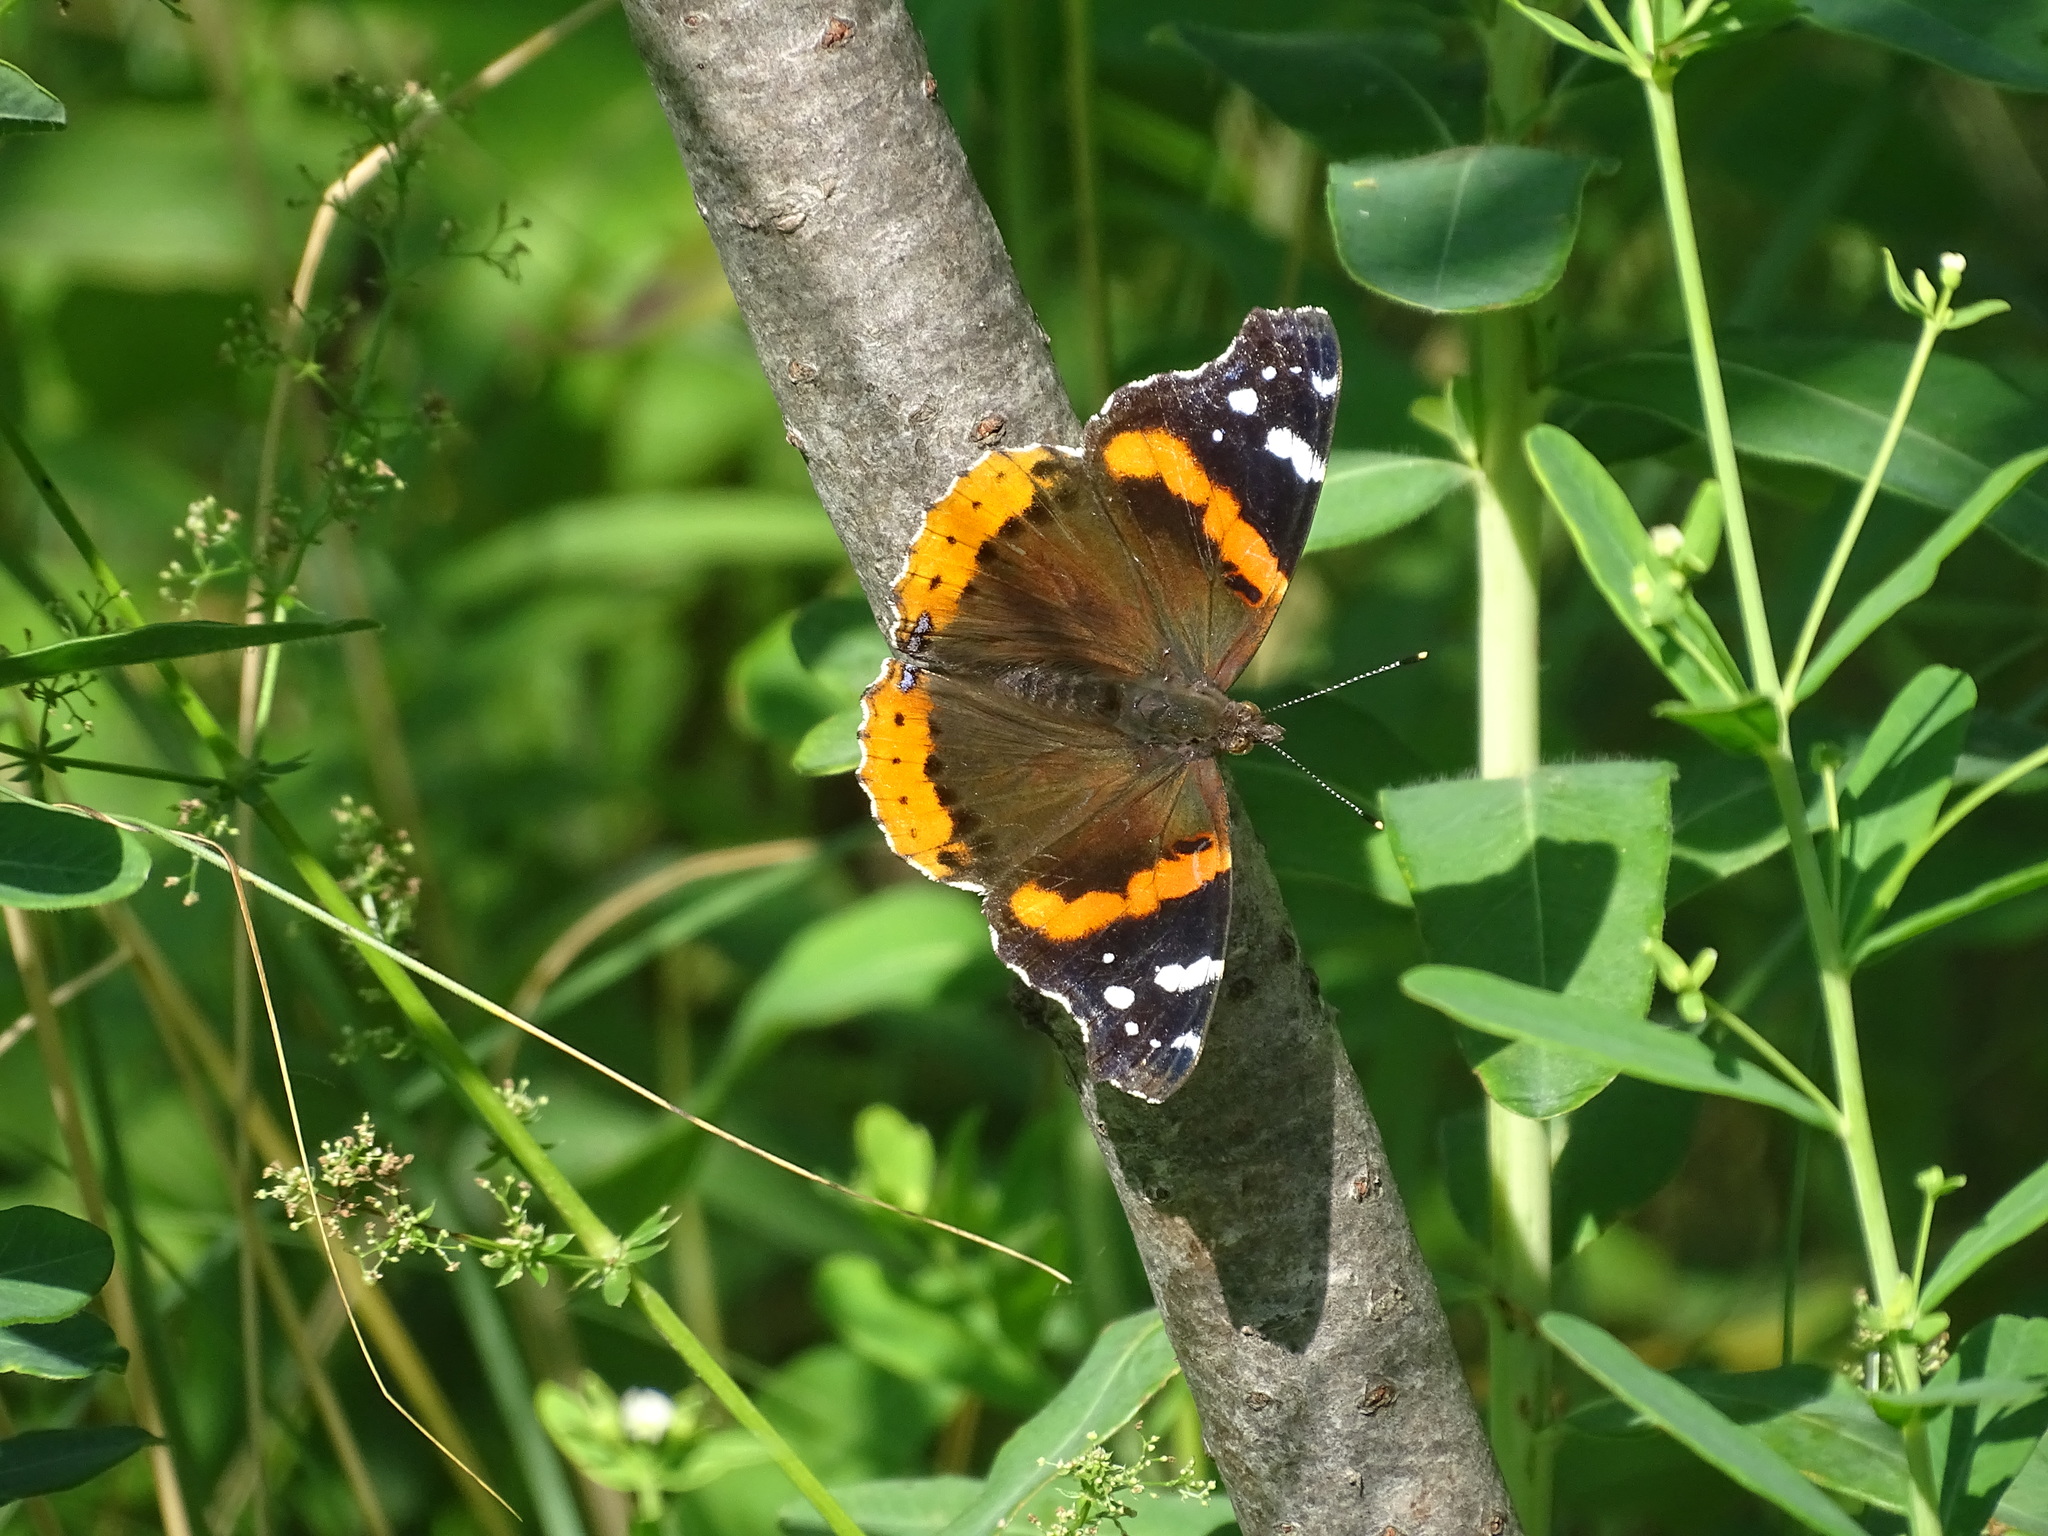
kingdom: Animalia
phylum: Arthropoda
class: Insecta
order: Lepidoptera
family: Nymphalidae
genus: Vanessa
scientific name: Vanessa atalanta
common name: Red admiral
